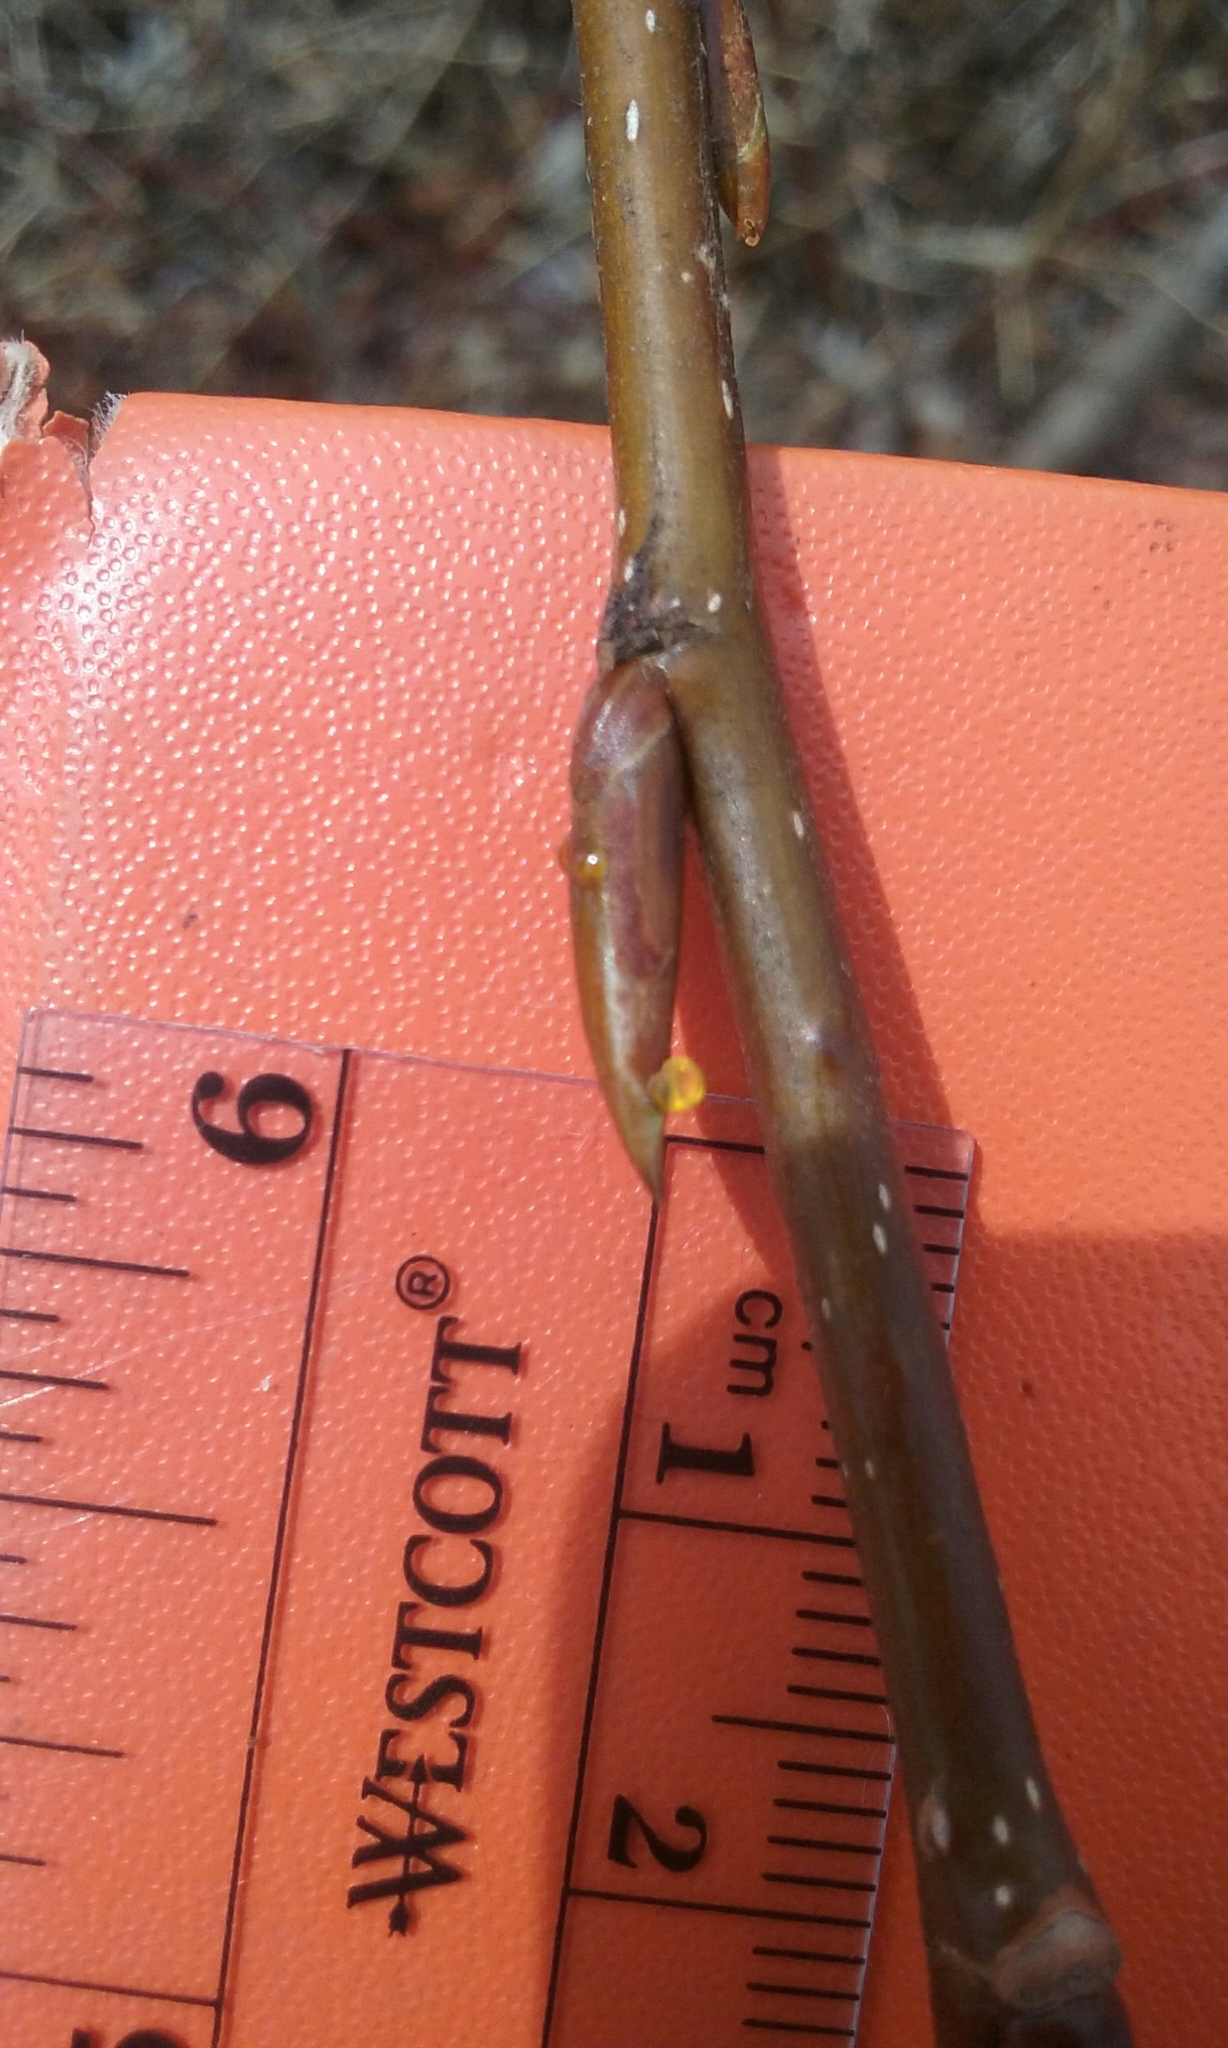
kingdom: Plantae
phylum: Tracheophyta
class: Magnoliopsida
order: Malpighiales
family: Salicaceae
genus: Populus
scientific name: Populus balsamifera
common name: Balsam poplar
